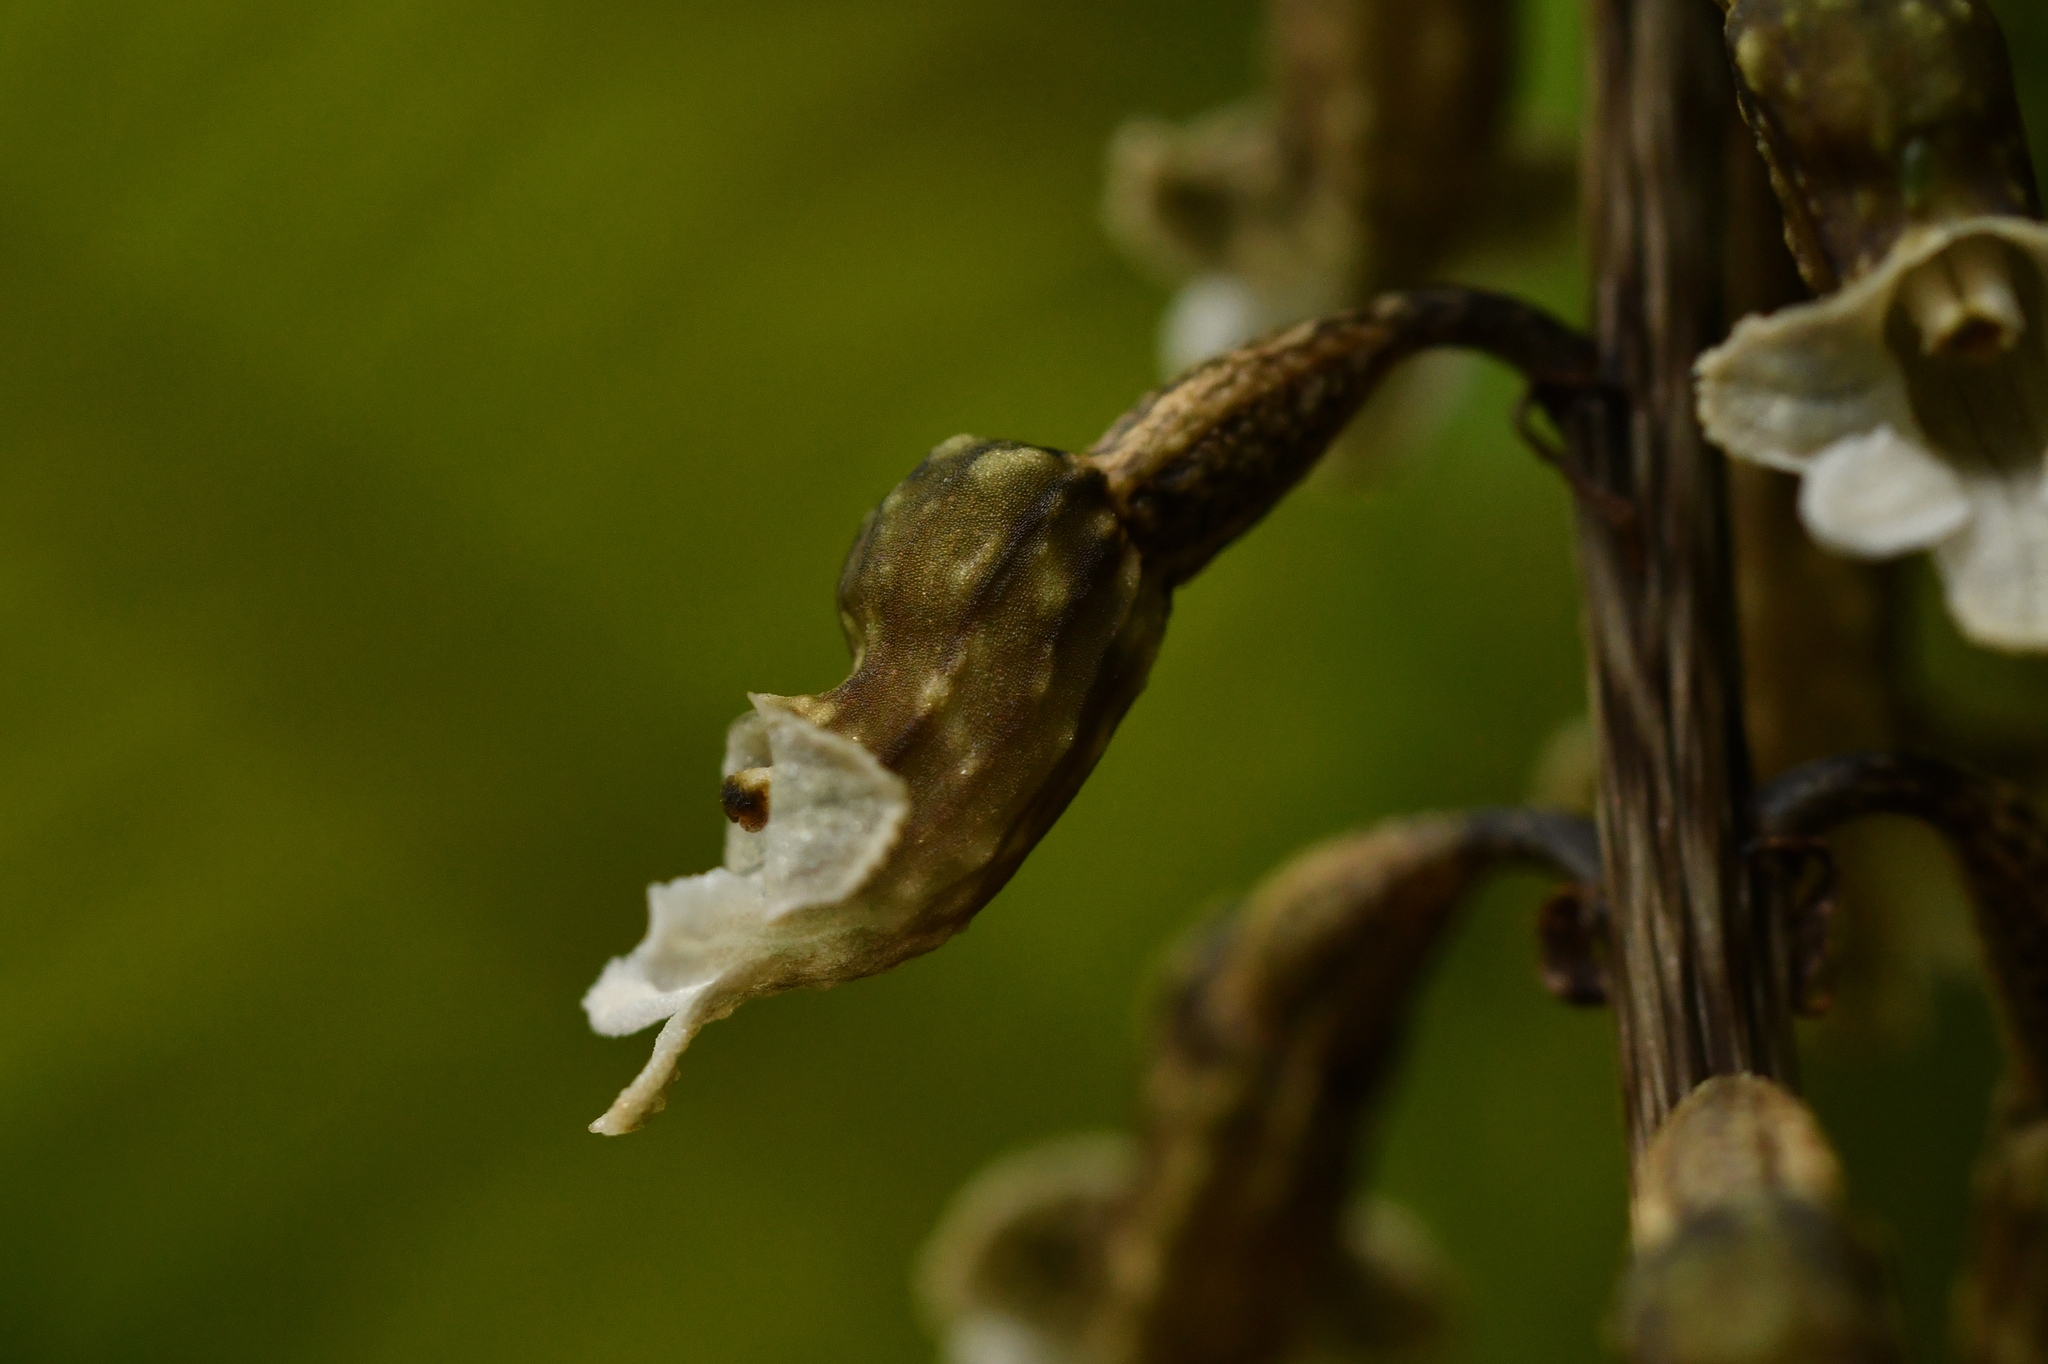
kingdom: Plantae
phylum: Tracheophyta
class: Liliopsida
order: Asparagales
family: Orchidaceae
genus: Gastrodia
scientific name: Gastrodia cunninghamii
